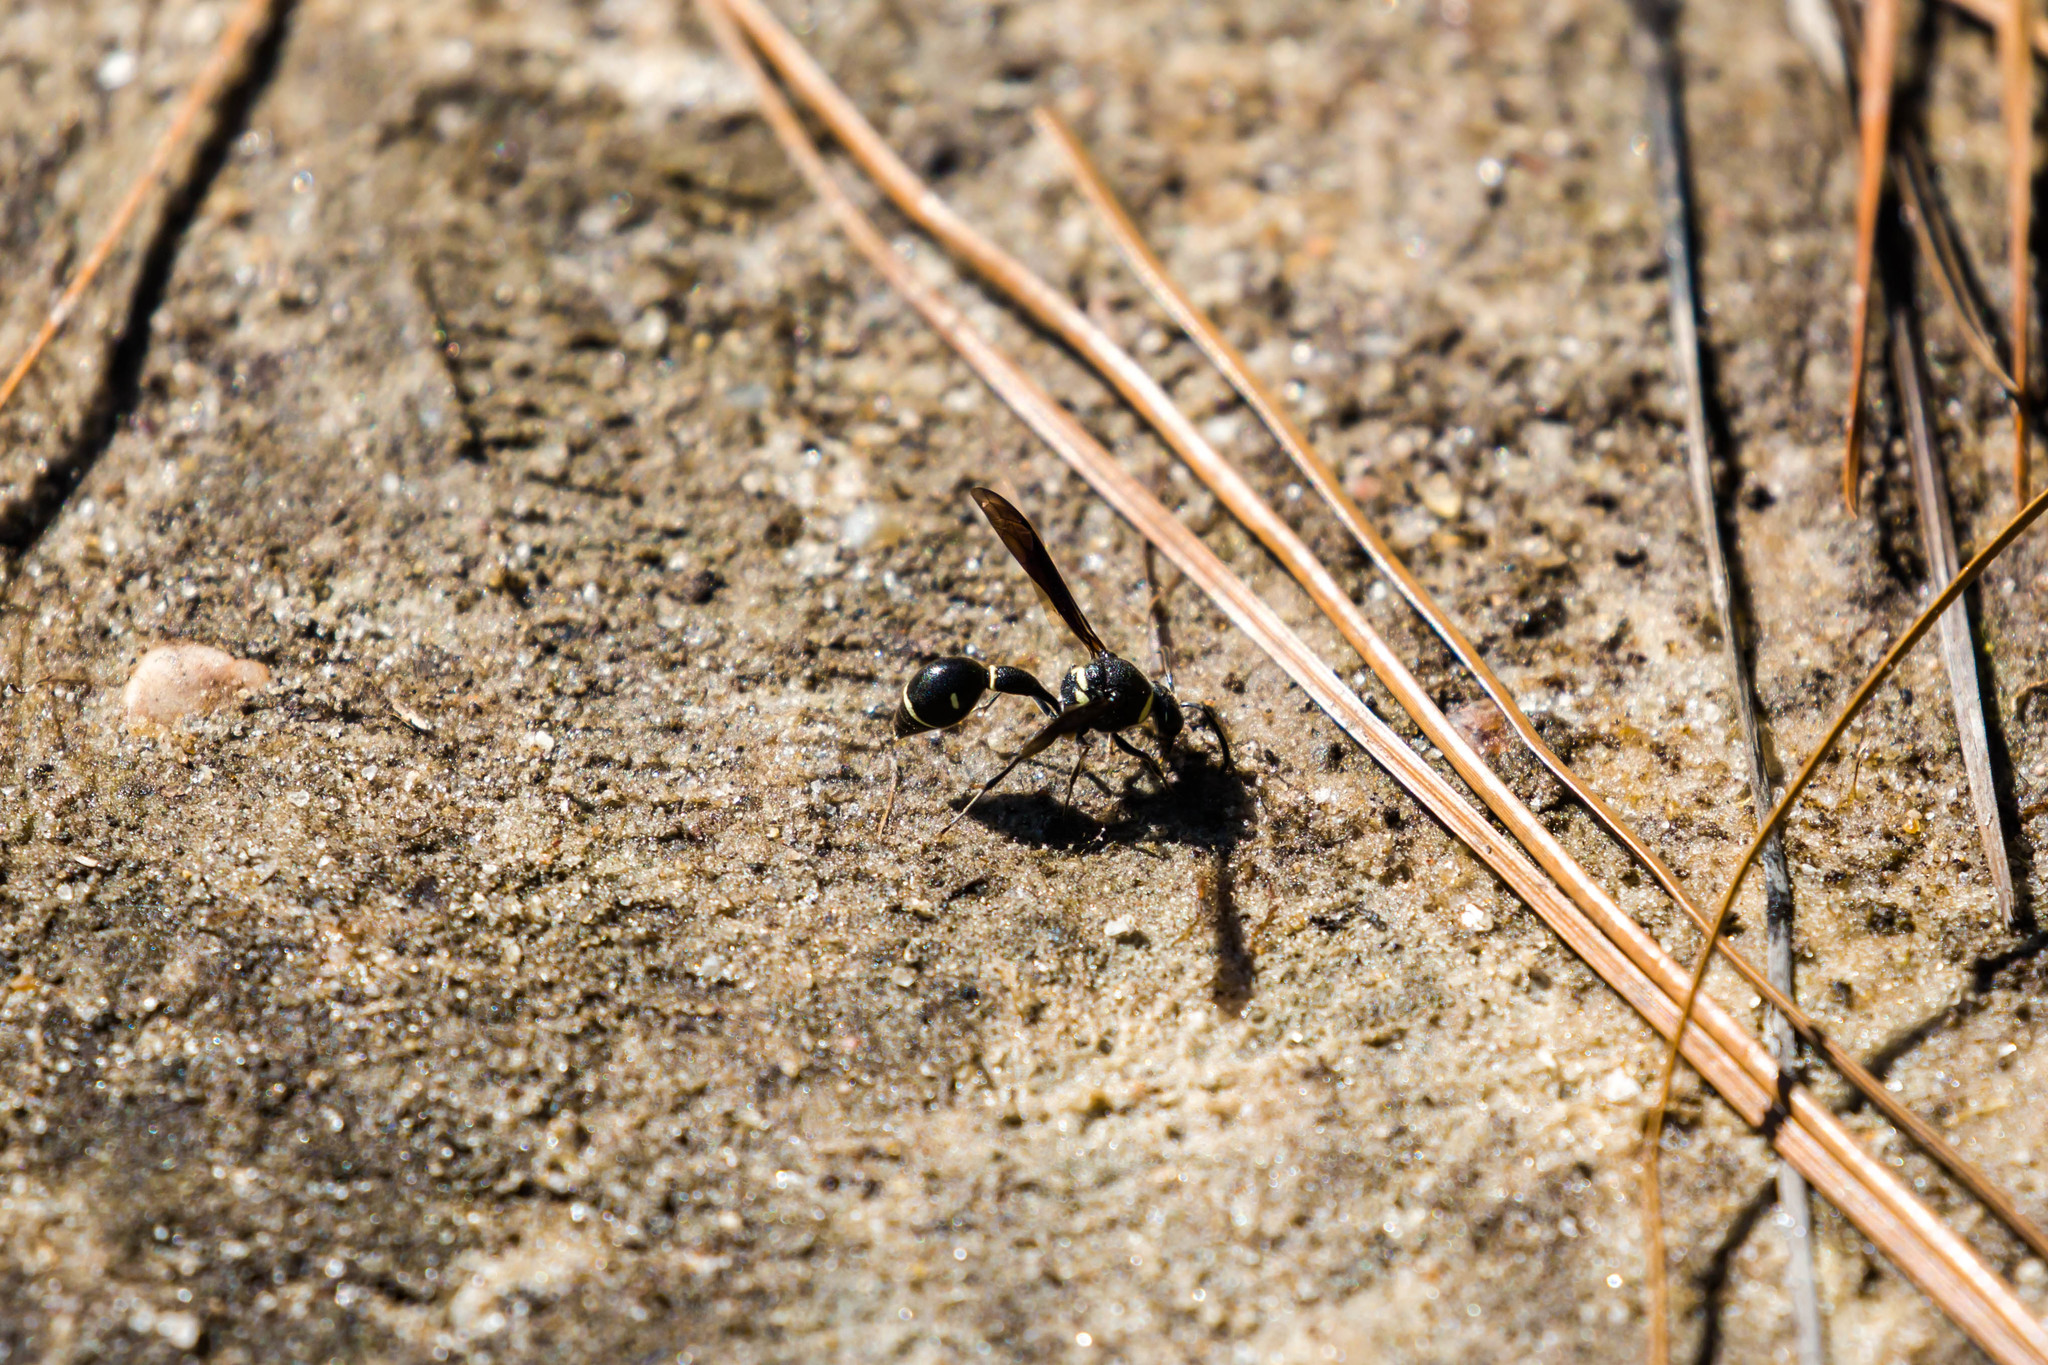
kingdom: Animalia
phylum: Arthropoda
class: Insecta
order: Hymenoptera
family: Vespidae
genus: Eumenes
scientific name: Eumenes fraternus
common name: Fraternal potter wasp
